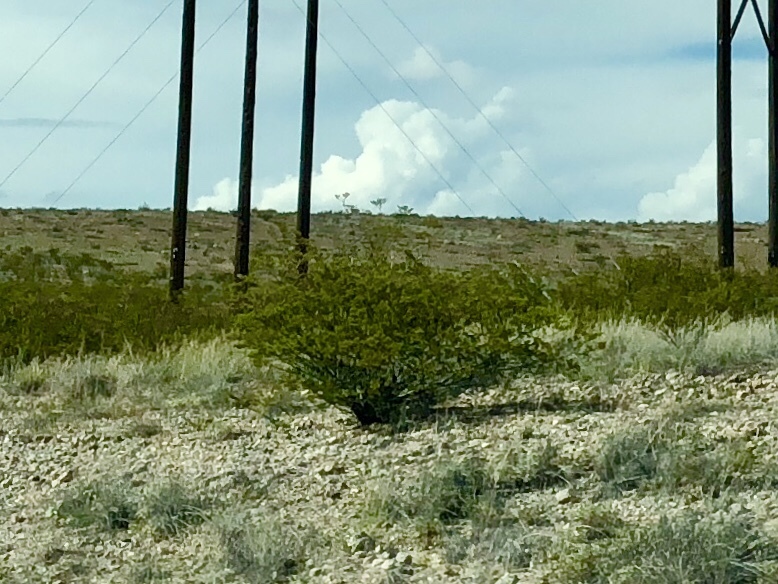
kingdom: Plantae
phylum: Tracheophyta
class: Magnoliopsida
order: Zygophyllales
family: Zygophyllaceae
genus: Larrea
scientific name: Larrea tridentata
